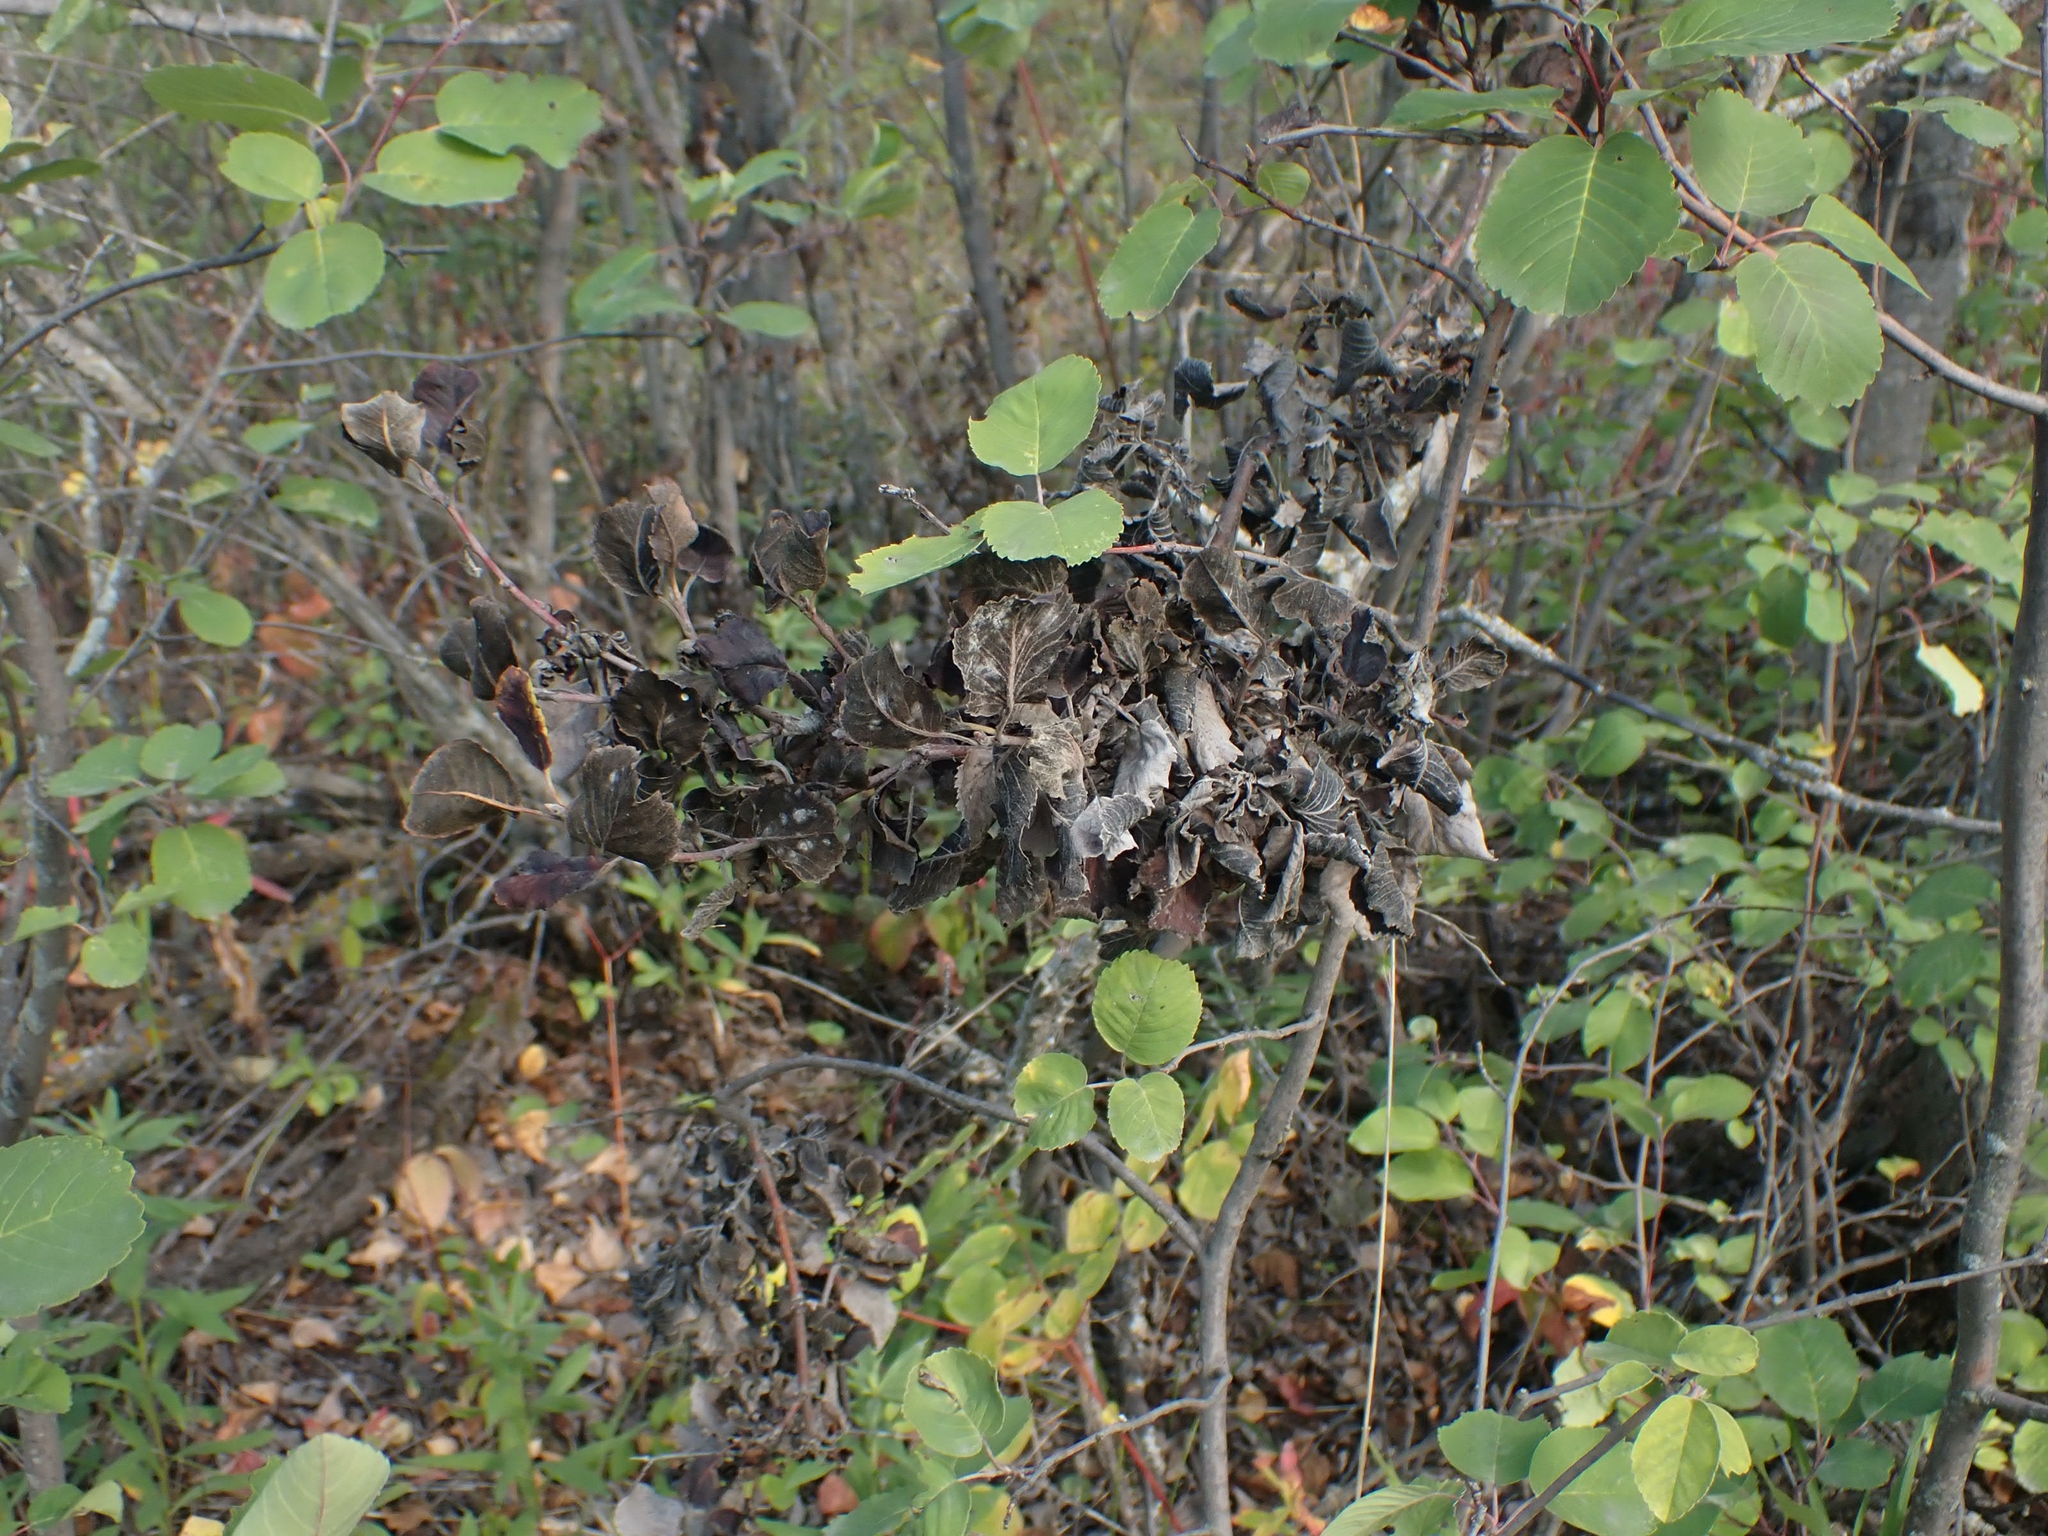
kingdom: Fungi
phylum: Ascomycota
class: Dothideomycetes
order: Venturiales
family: Venturiaceae
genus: Apiosporina
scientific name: Apiosporina collinsii
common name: Black leaf
